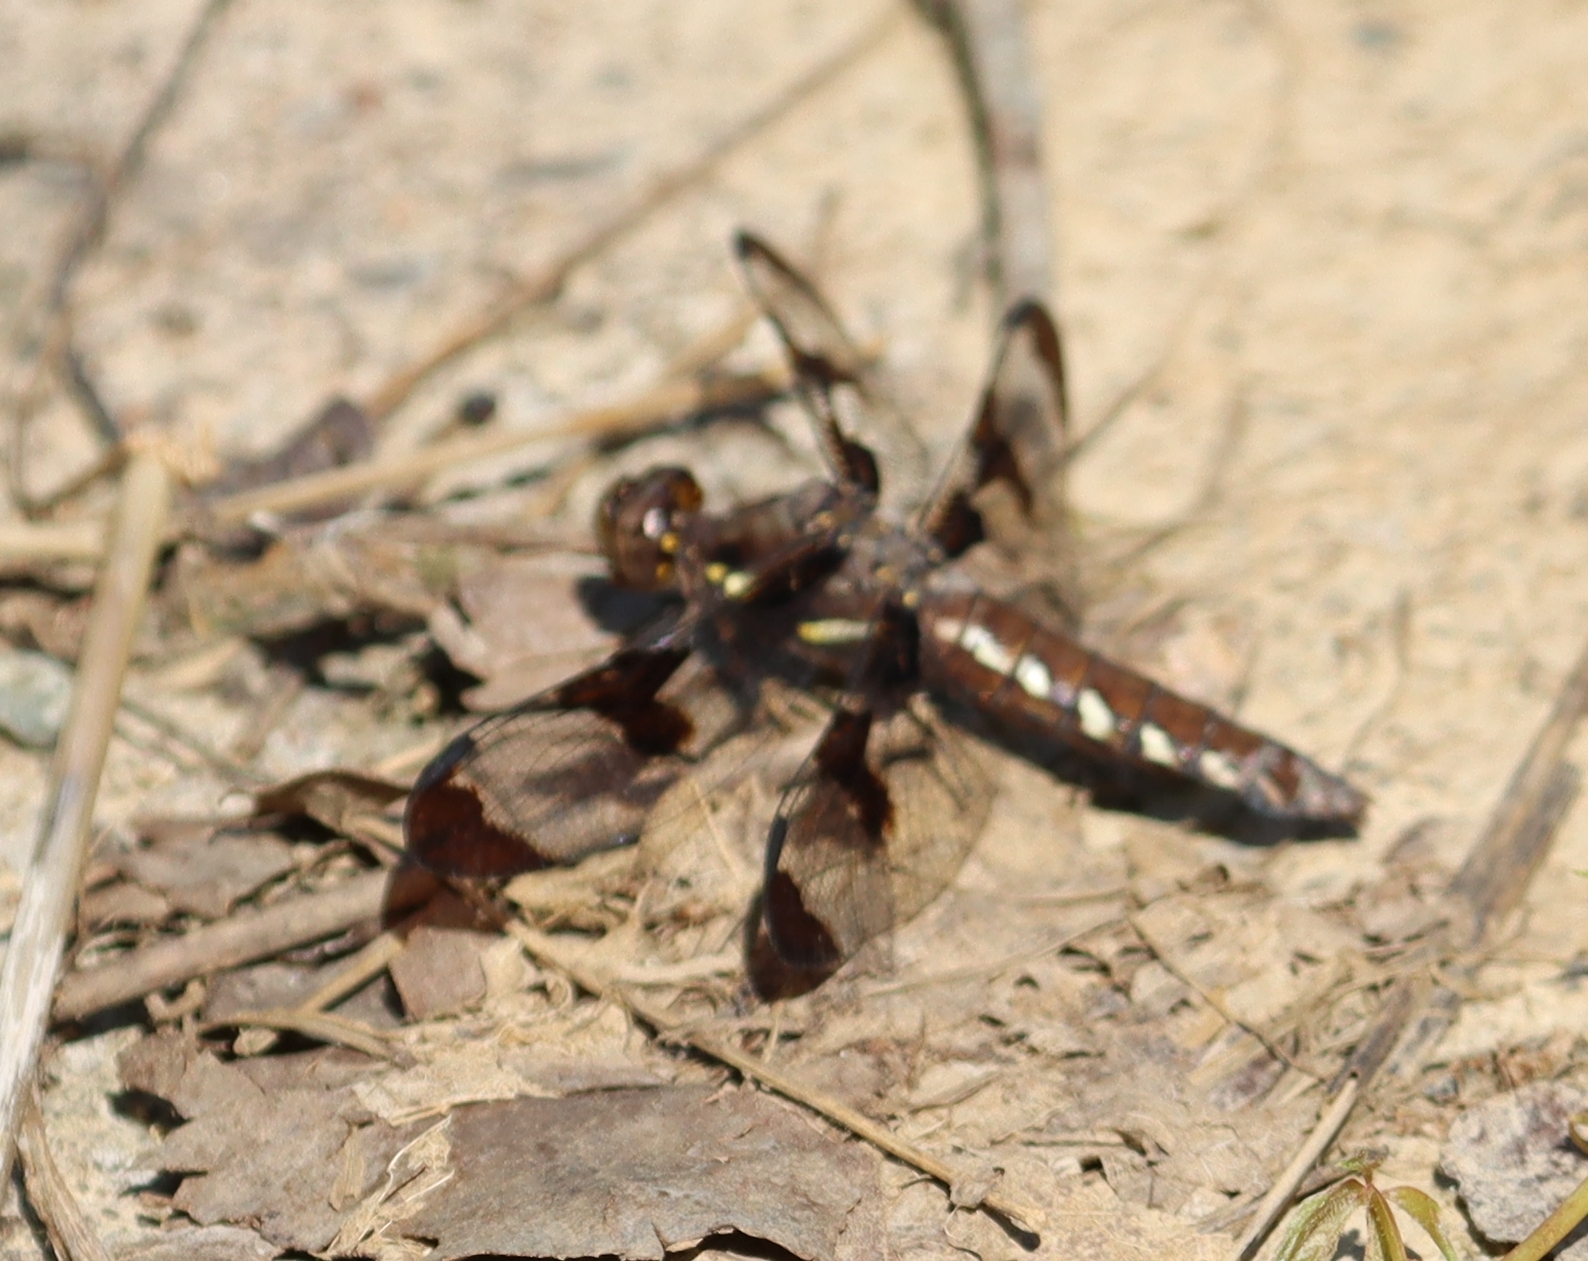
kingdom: Animalia
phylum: Arthropoda
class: Insecta
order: Odonata
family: Libellulidae
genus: Plathemis
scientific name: Plathemis lydia
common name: Common whitetail
